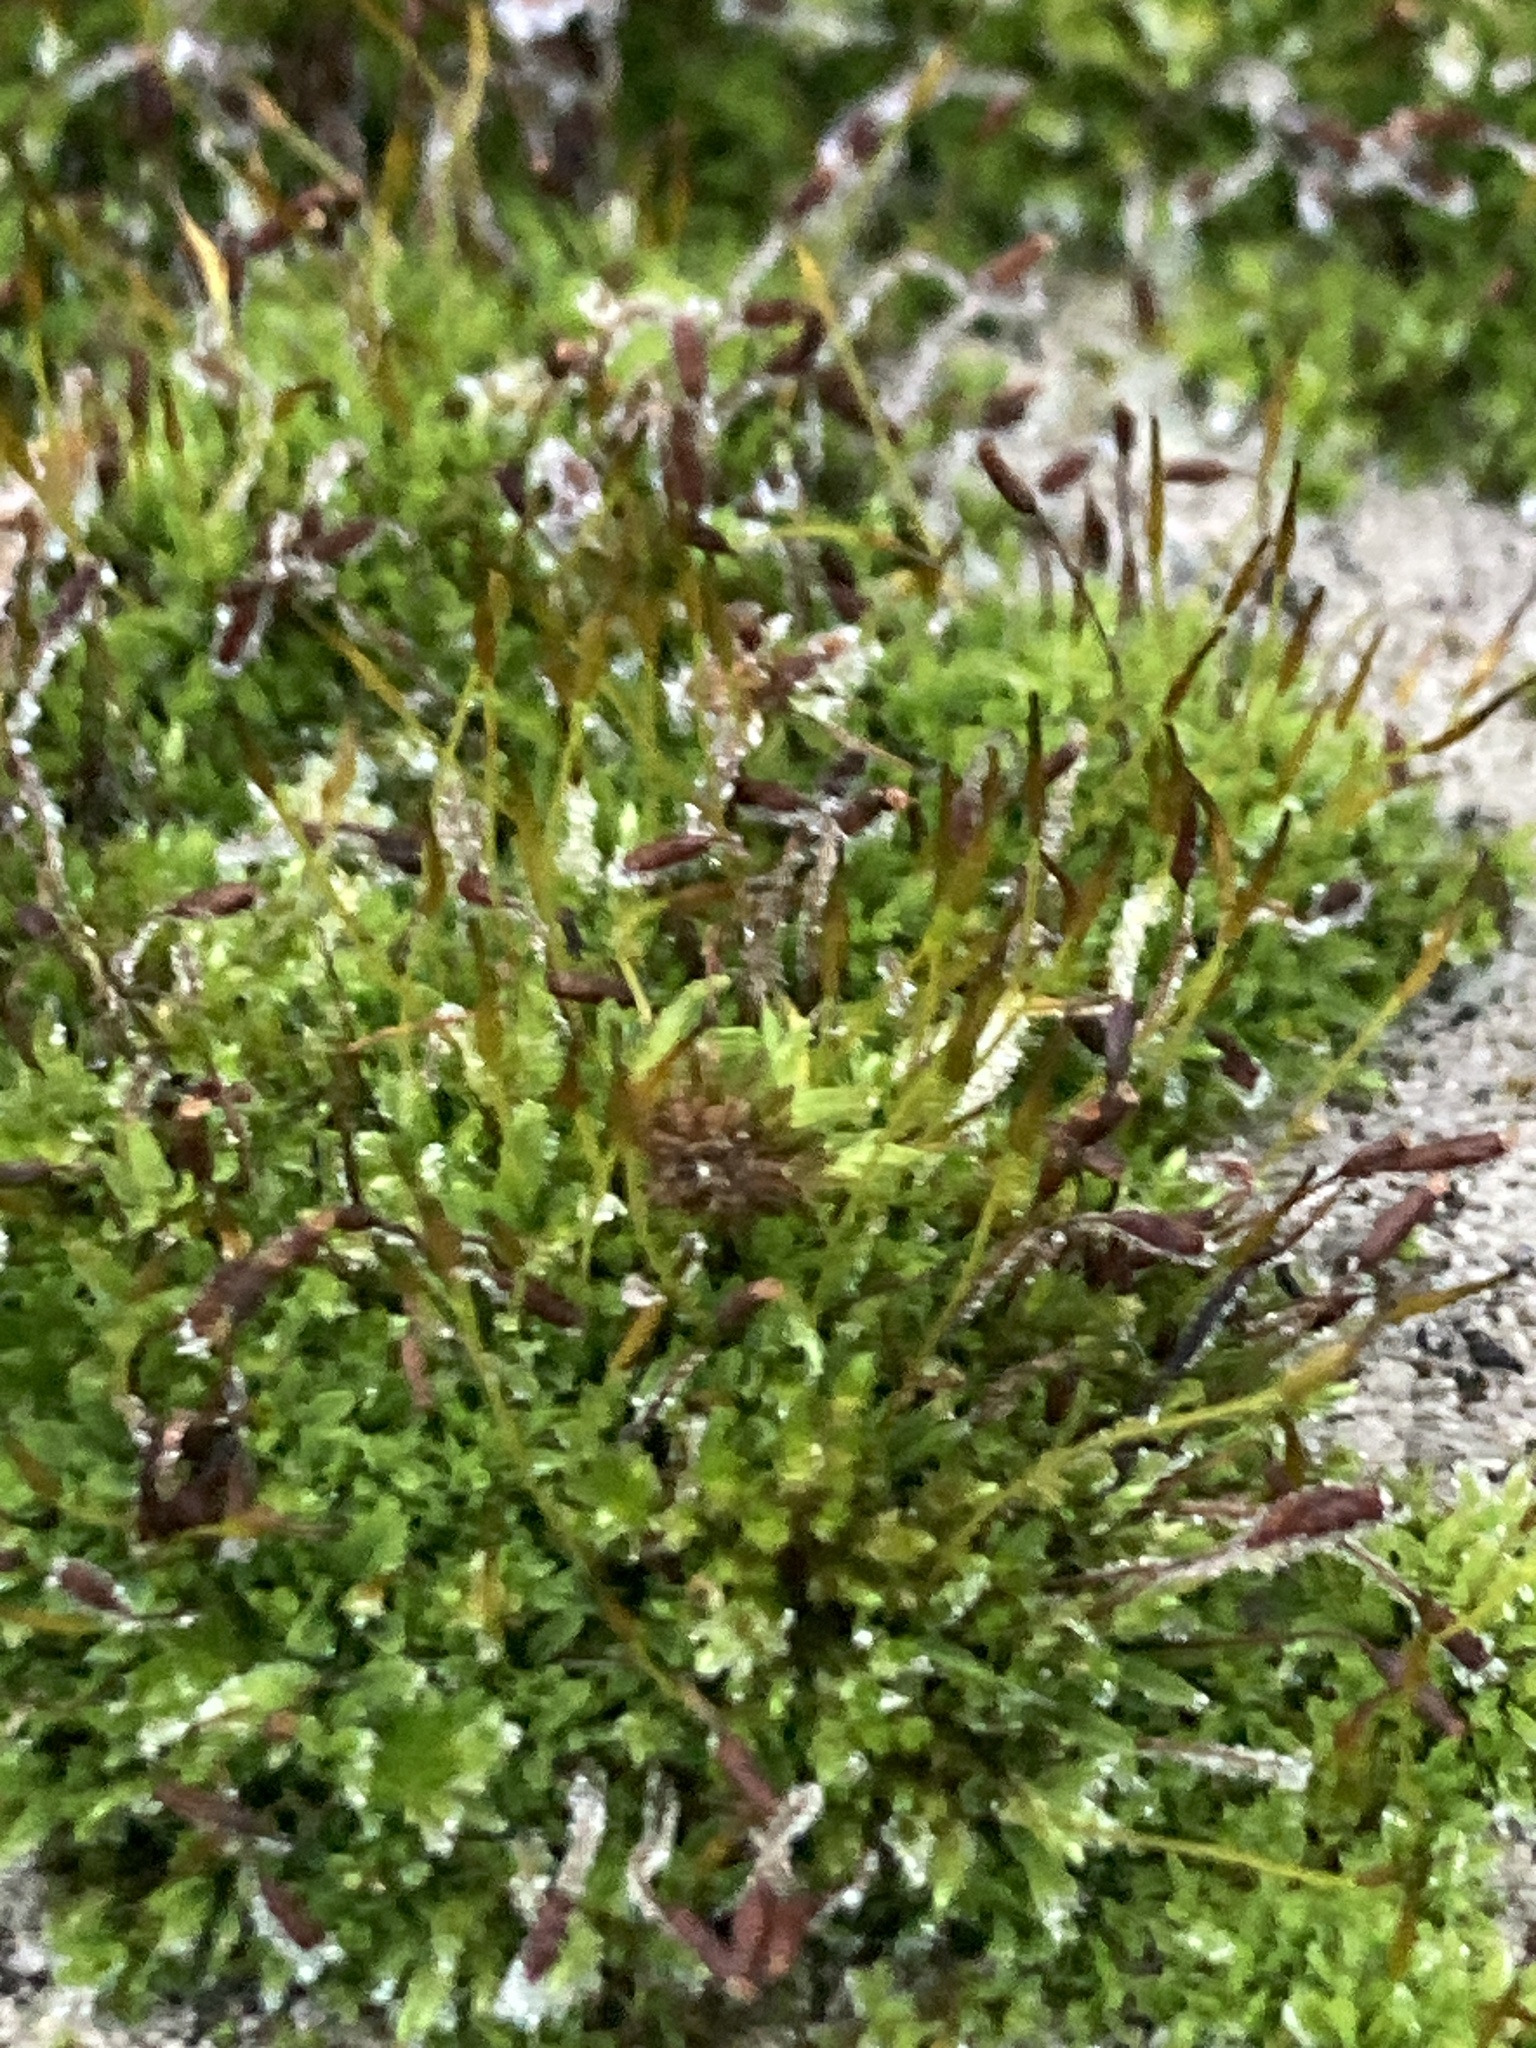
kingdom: Plantae
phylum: Bryophyta
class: Bryopsida
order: Pottiales
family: Pottiaceae
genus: Tortula
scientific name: Tortula muralis
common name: Wall screw-moss
